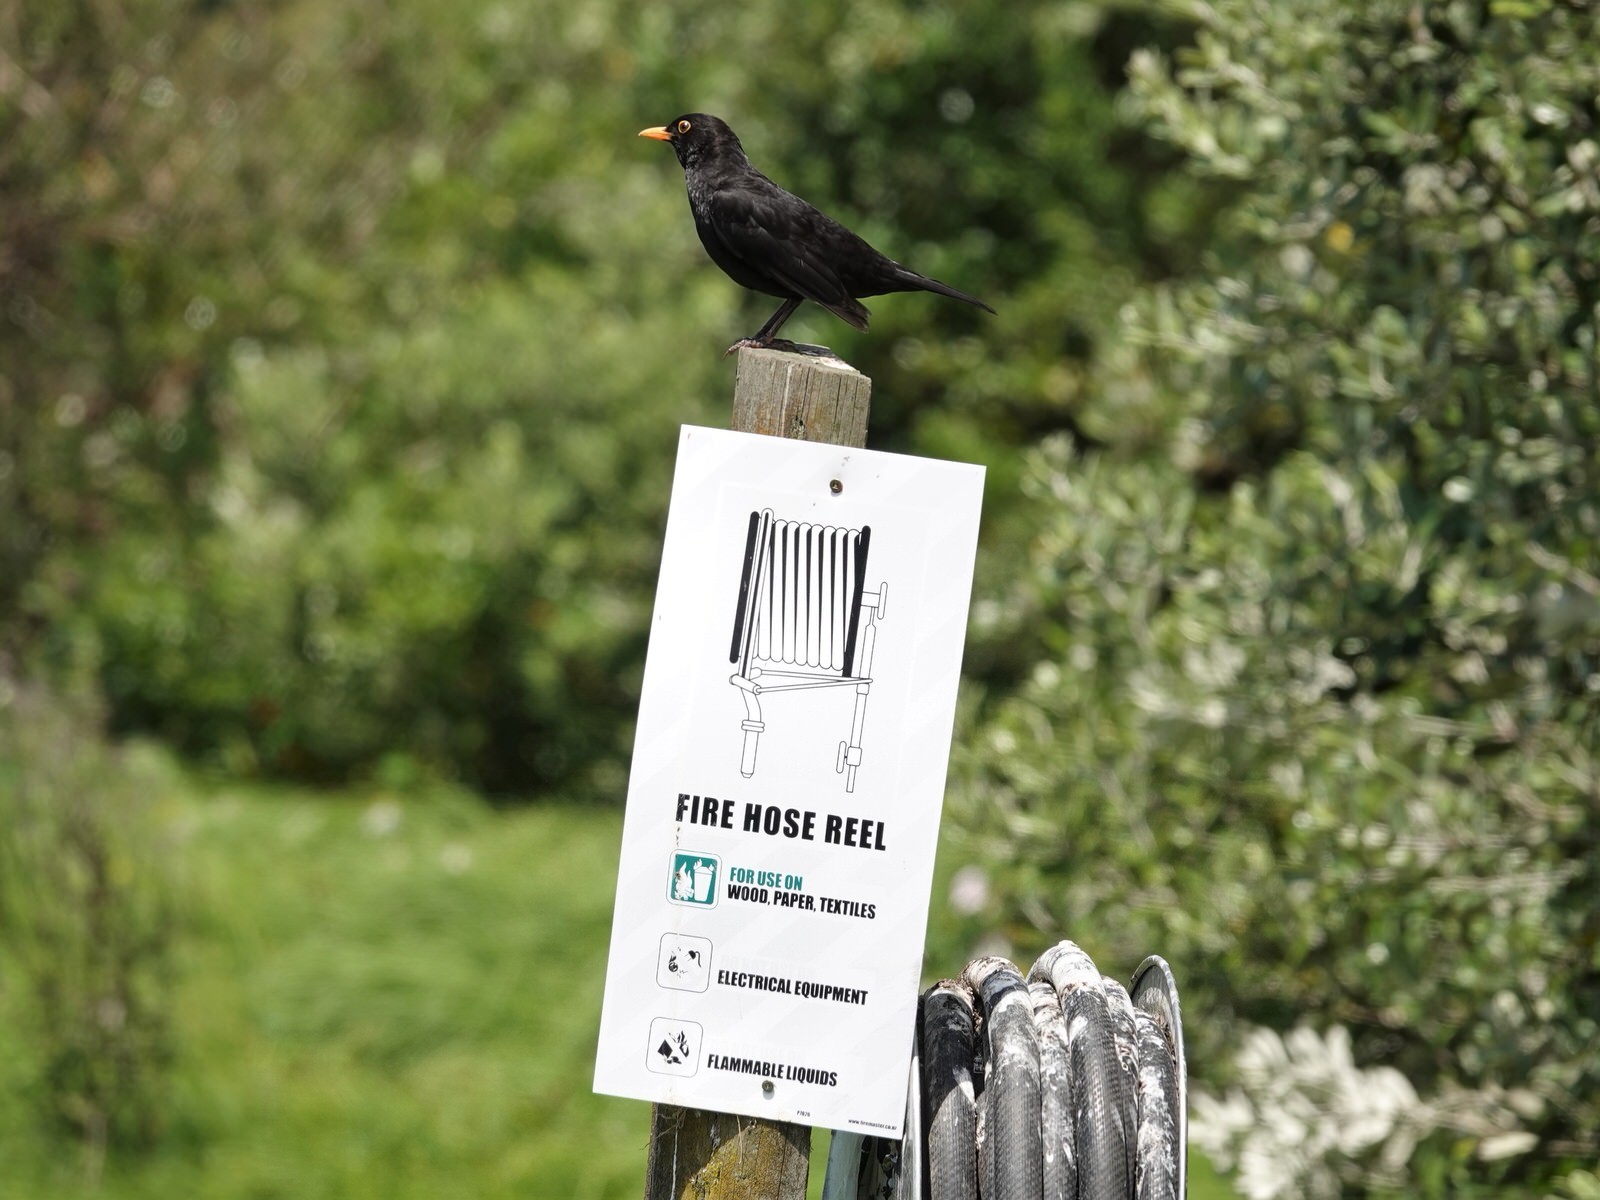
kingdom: Animalia
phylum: Chordata
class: Aves
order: Passeriformes
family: Turdidae
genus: Turdus
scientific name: Turdus merula
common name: Common blackbird
